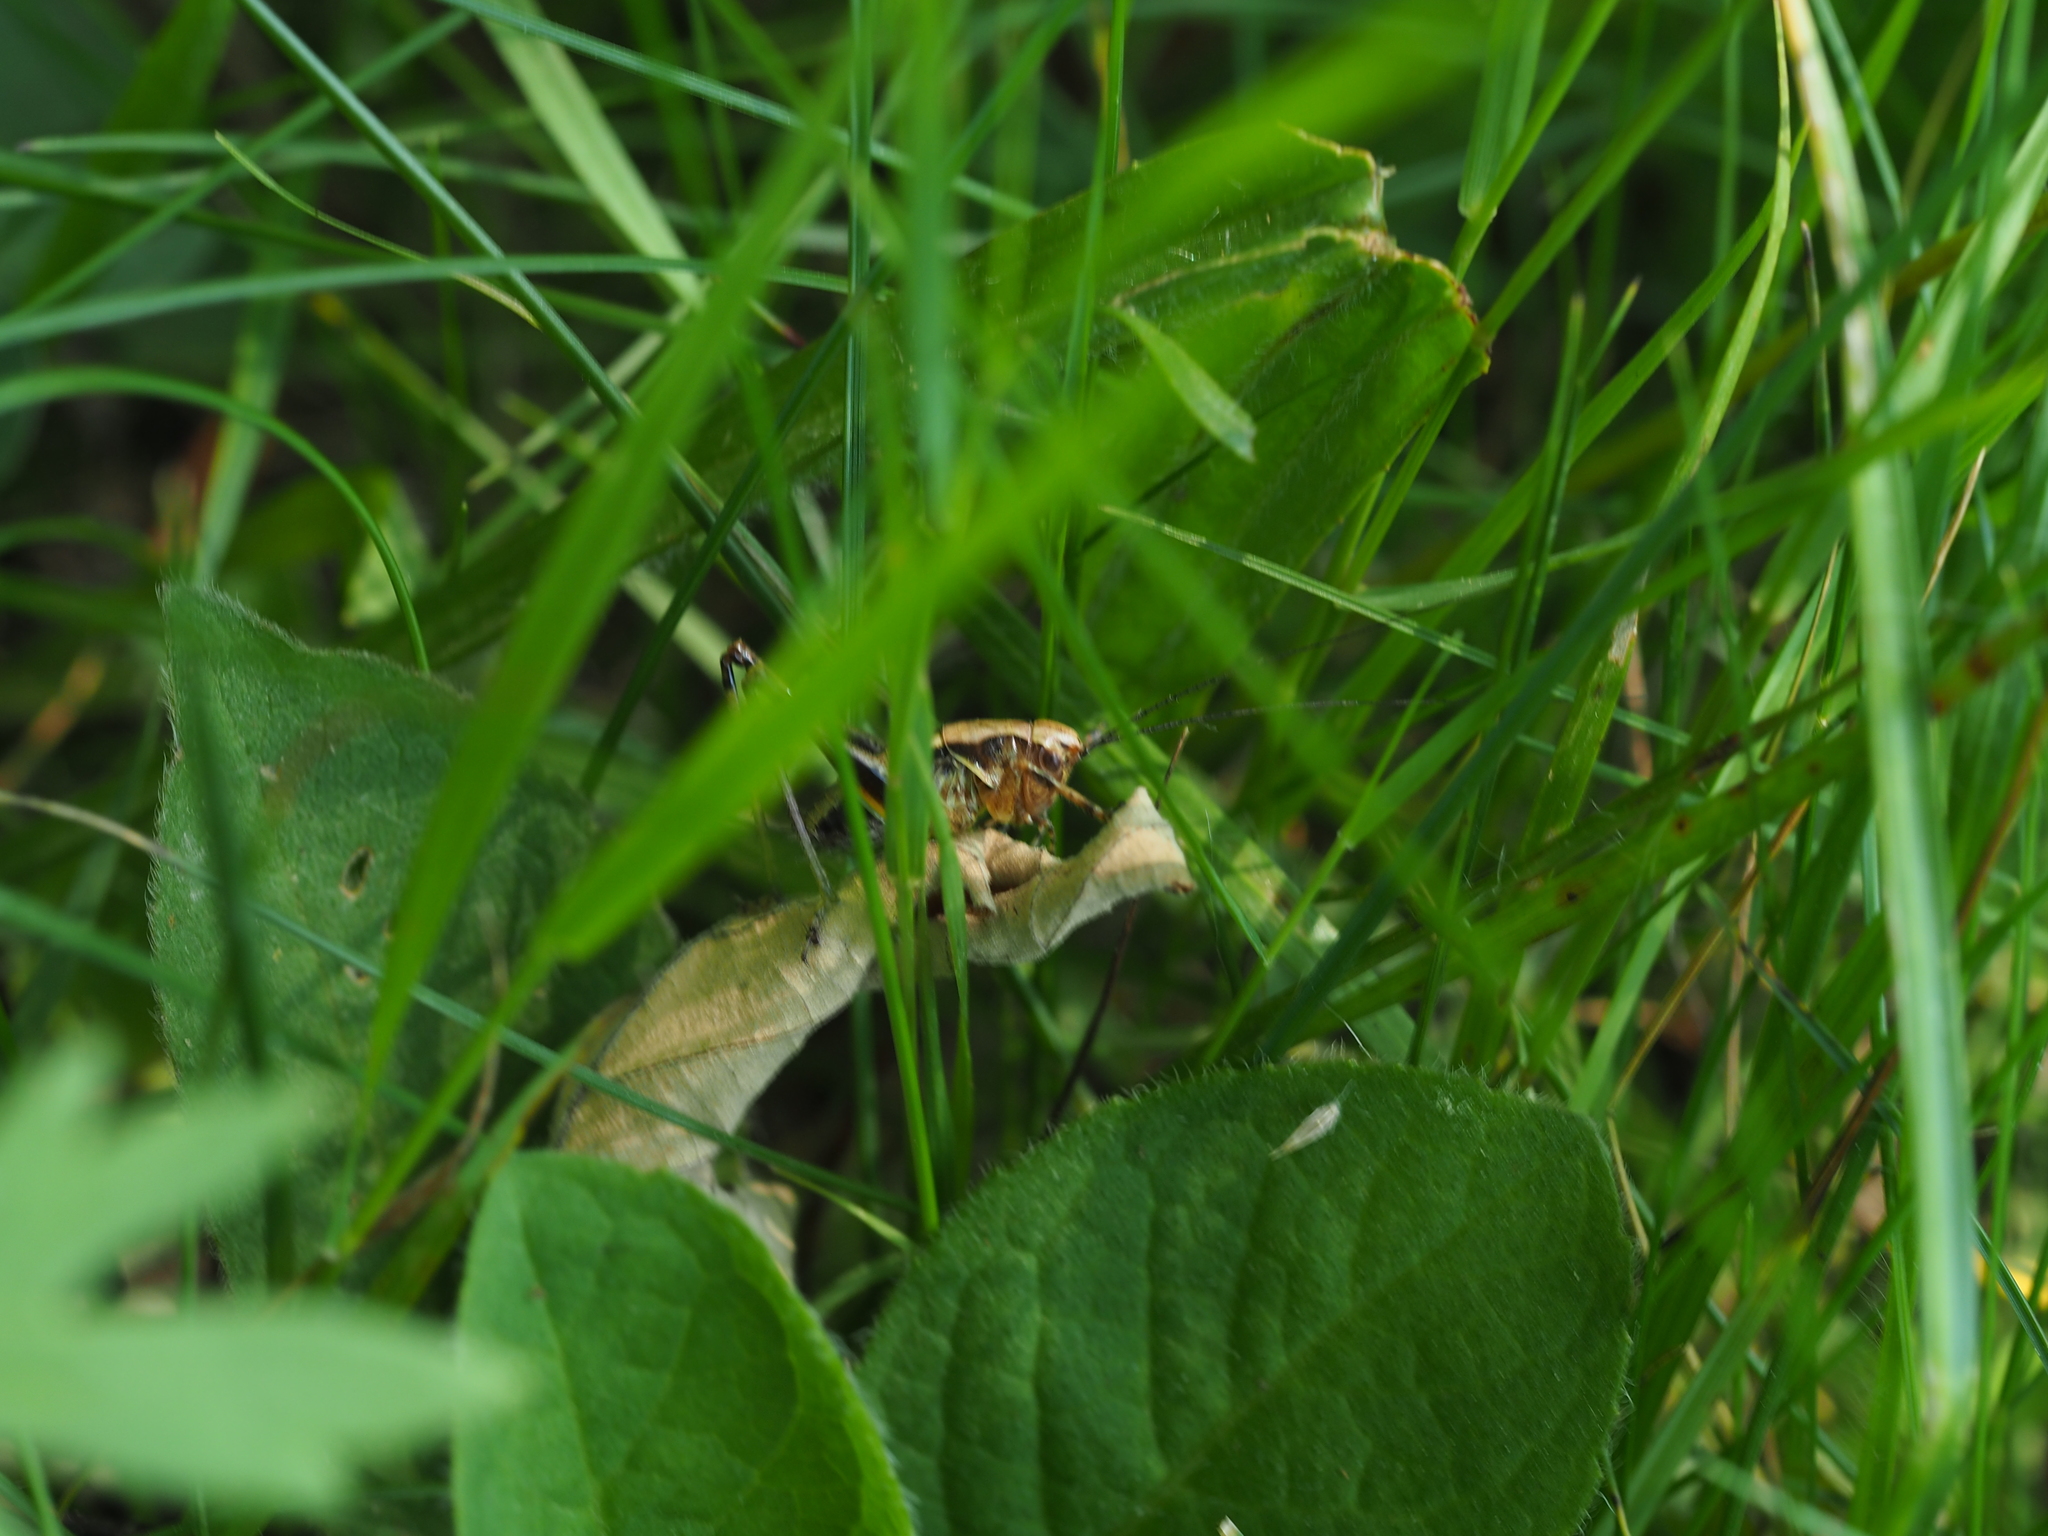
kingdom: Animalia
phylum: Arthropoda
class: Insecta
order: Orthoptera
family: Tettigoniidae
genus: Pholidoptera
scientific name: Pholidoptera aptera
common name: Alpine dark bush-cricket
